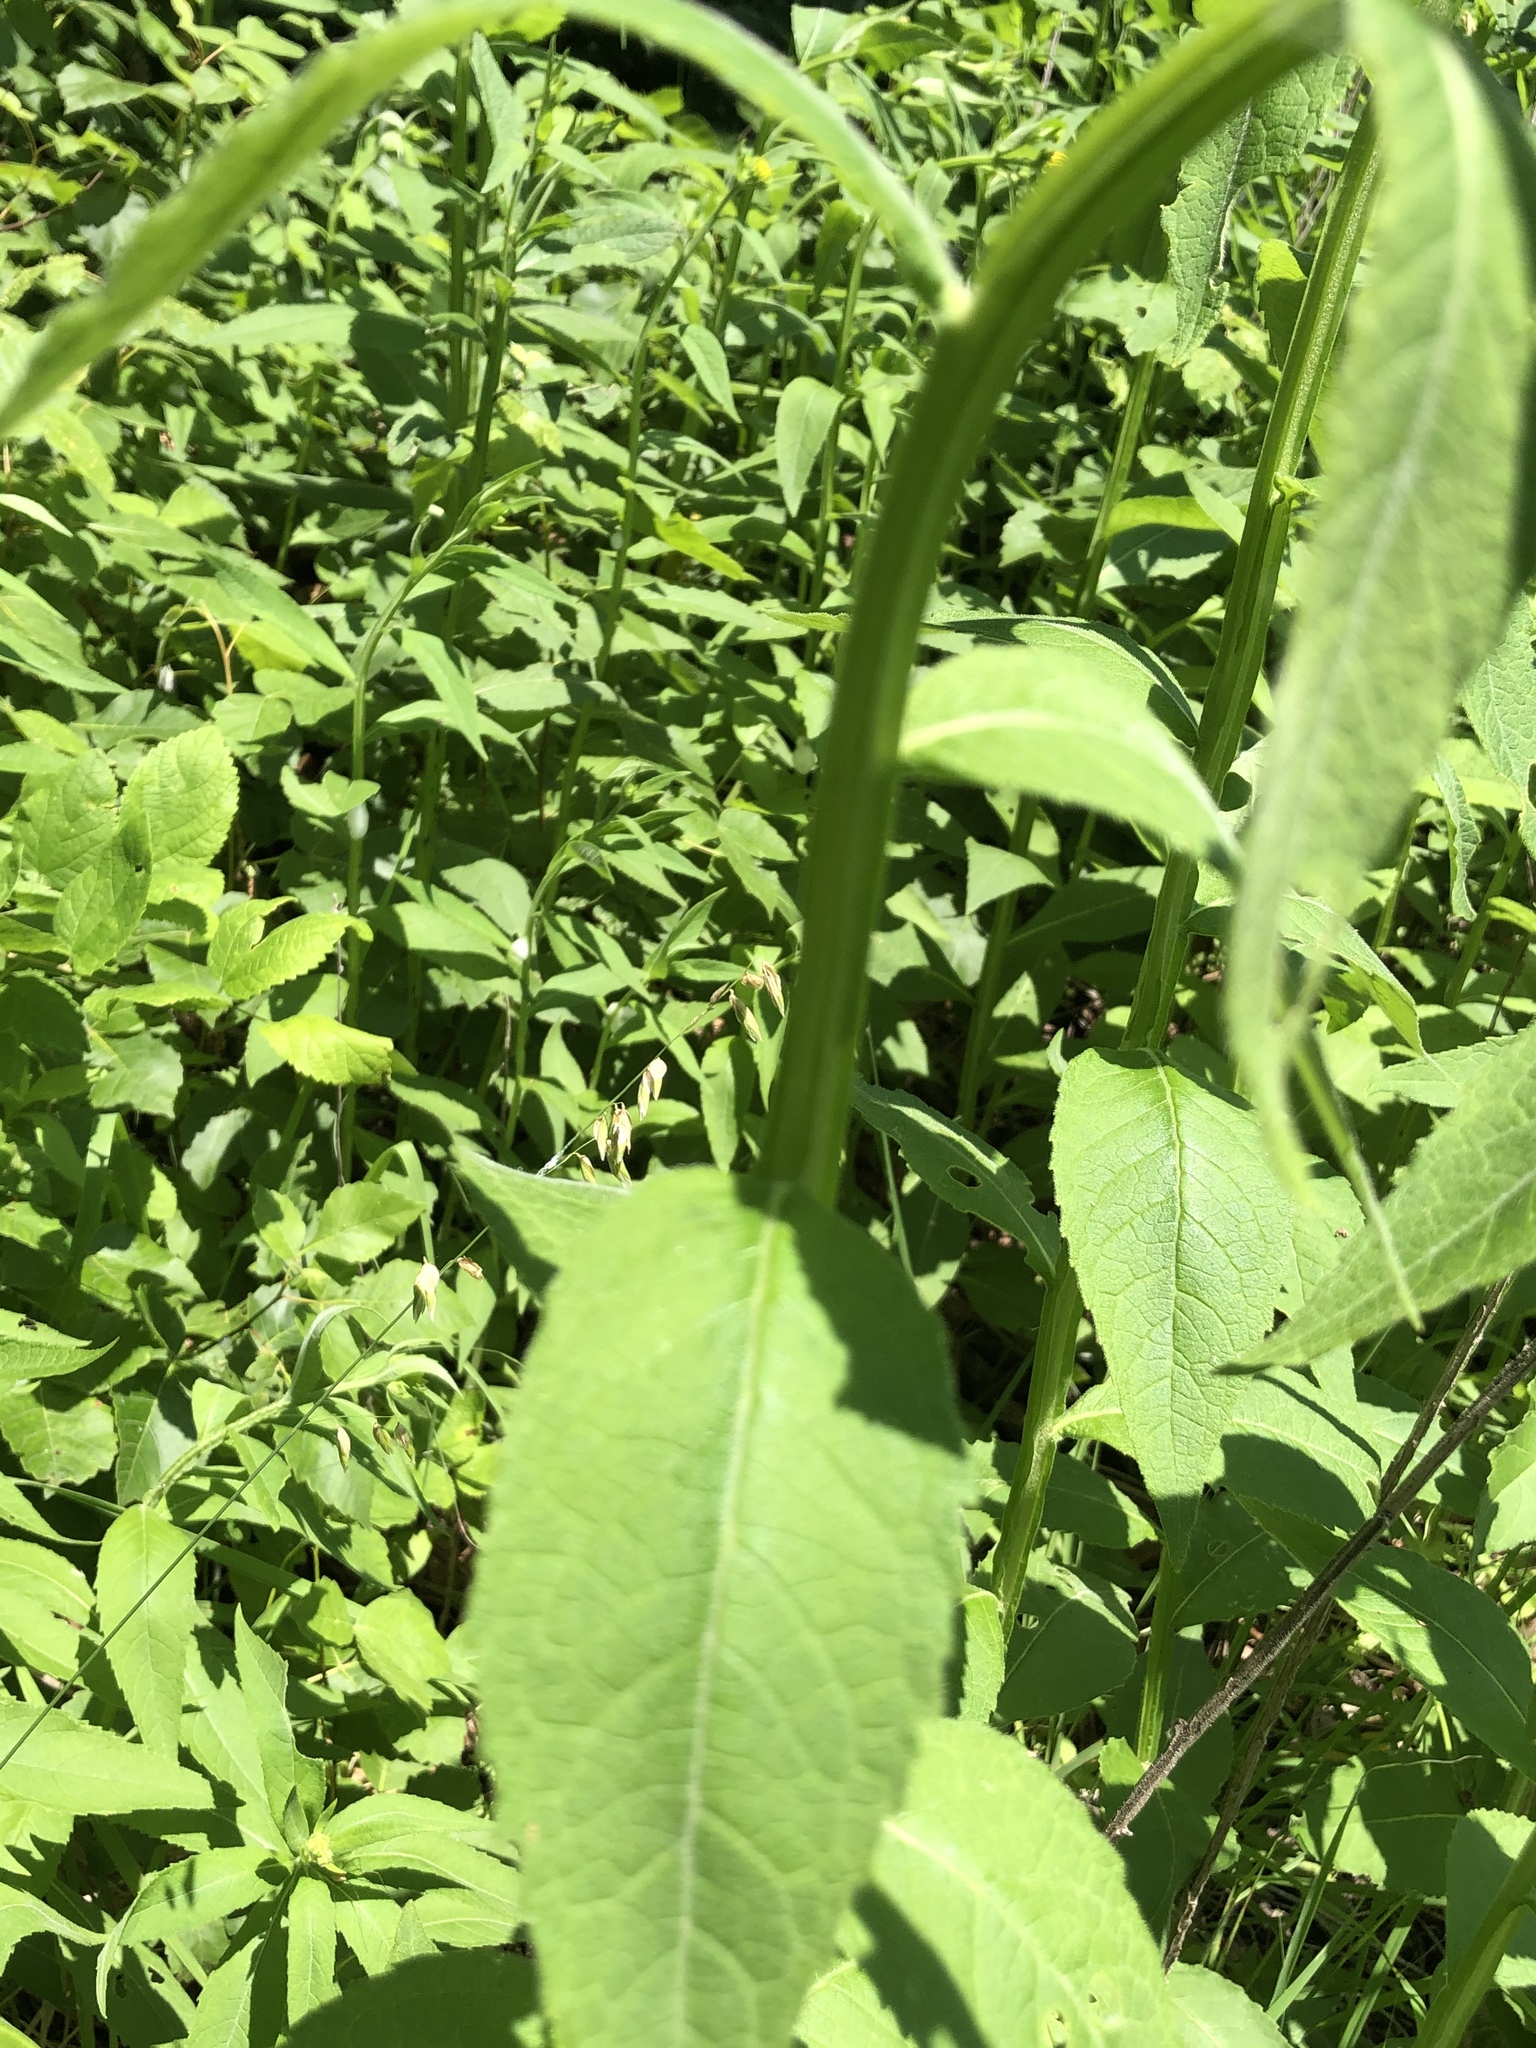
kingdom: Plantae
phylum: Tracheophyta
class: Magnoliopsida
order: Asterales
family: Asteraceae
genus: Verbesina
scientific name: Verbesina helianthoides
